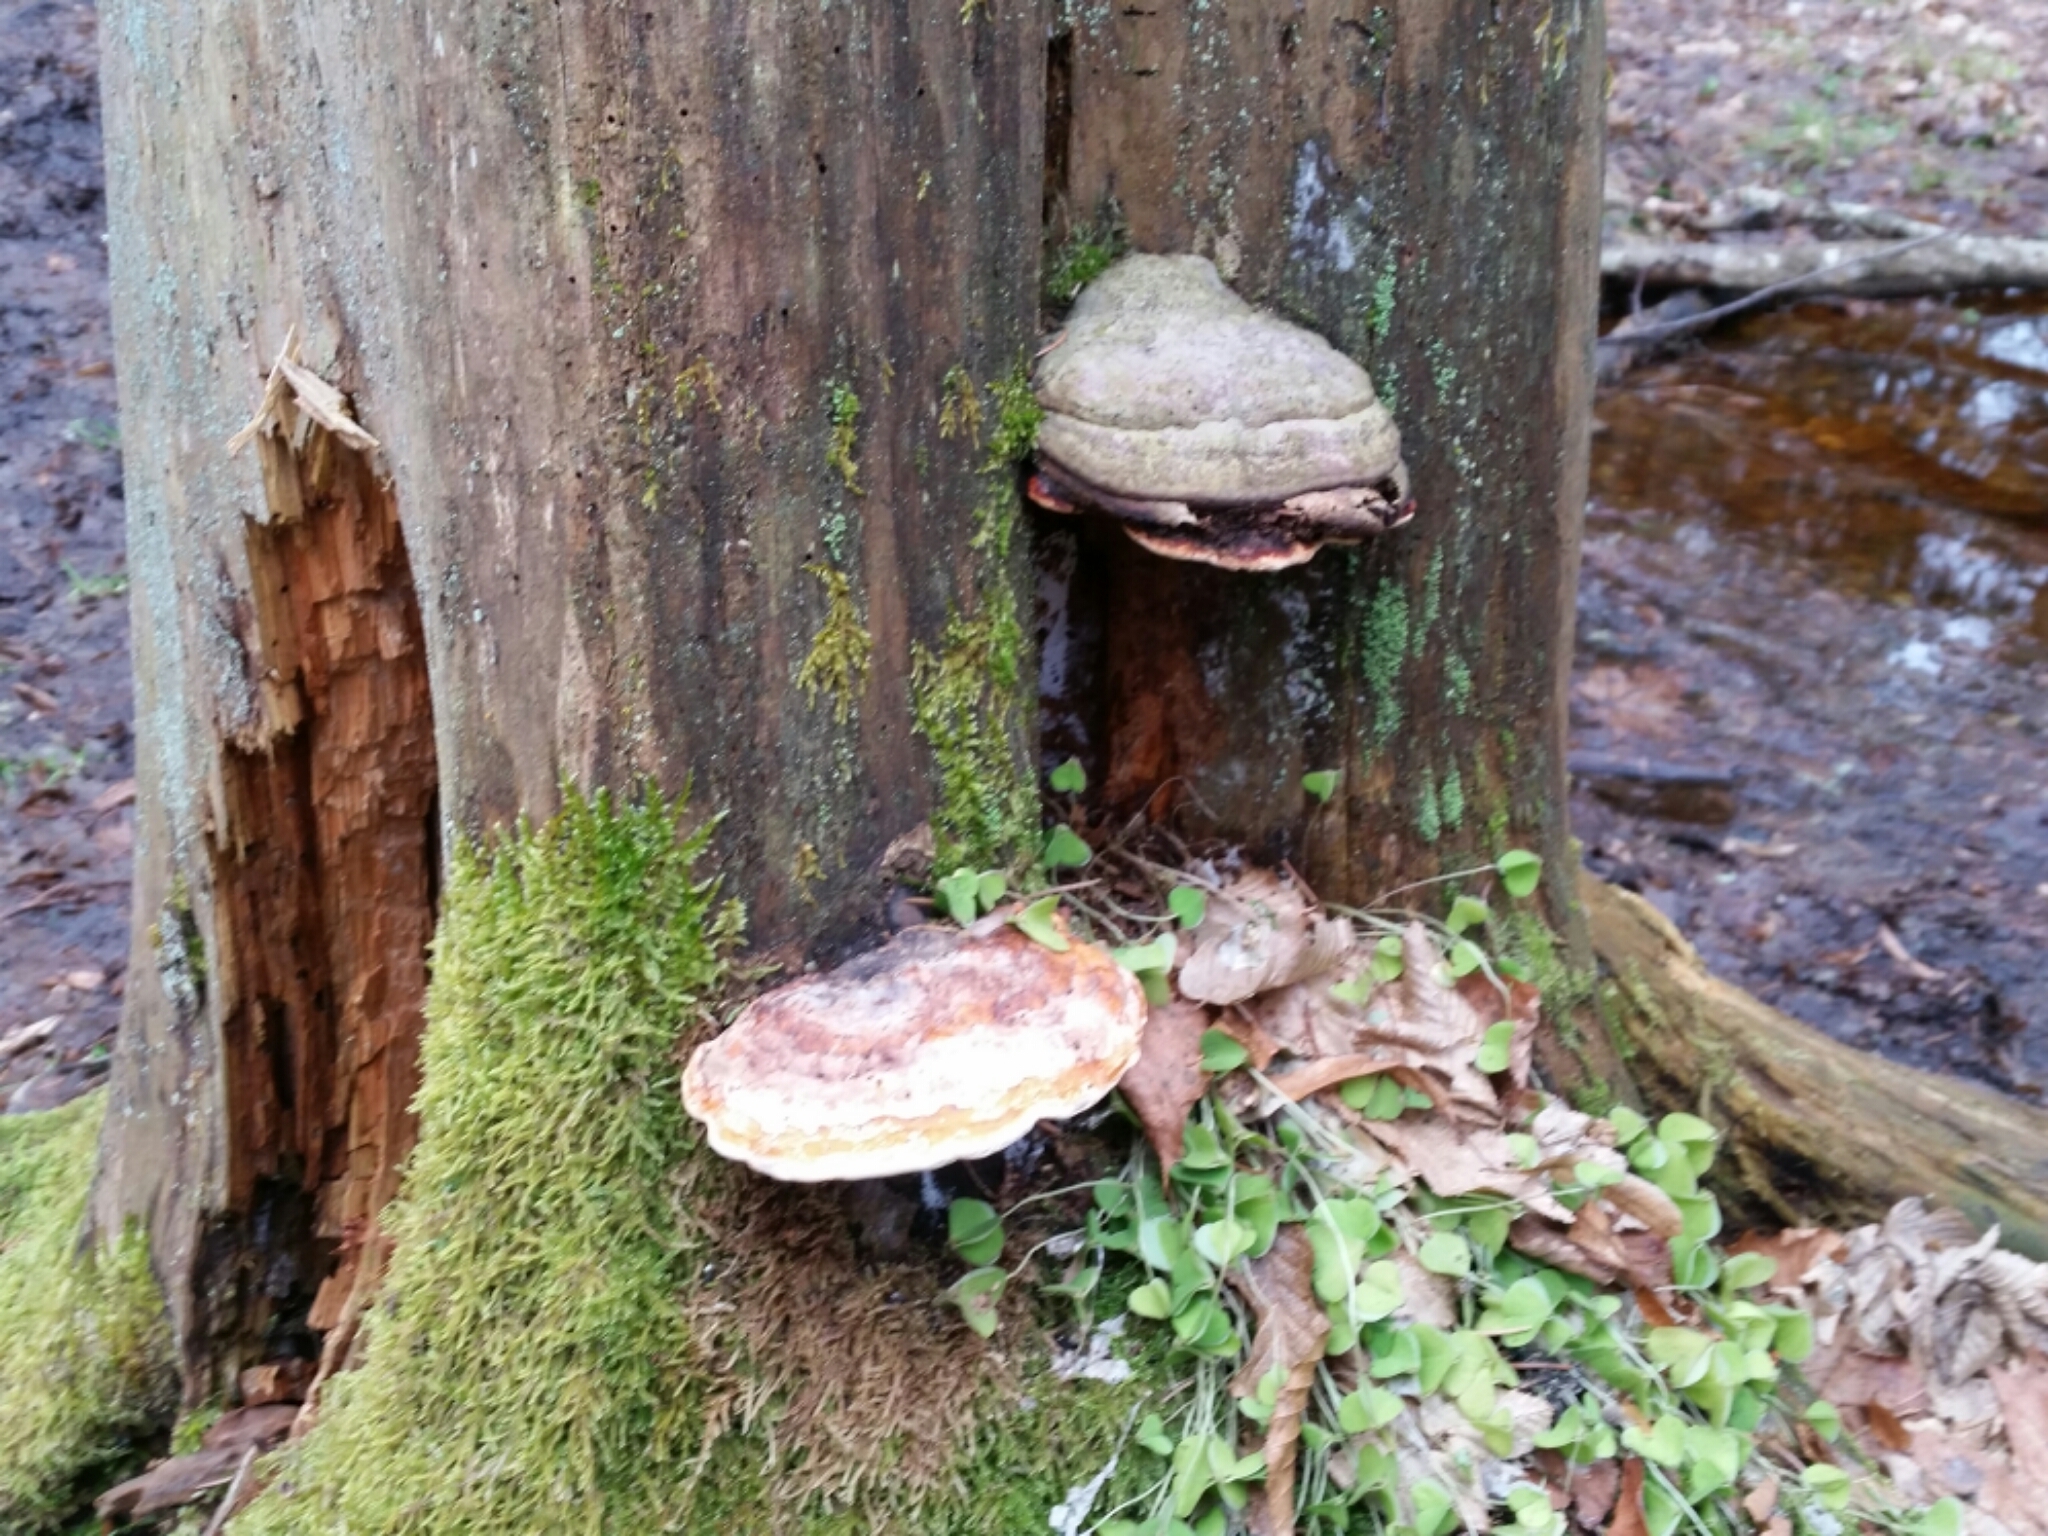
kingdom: Fungi
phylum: Basidiomycota
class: Agaricomycetes
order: Polyporales
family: Fomitopsidaceae
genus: Fomitopsis
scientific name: Fomitopsis pinicola
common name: Red-belted bracket
